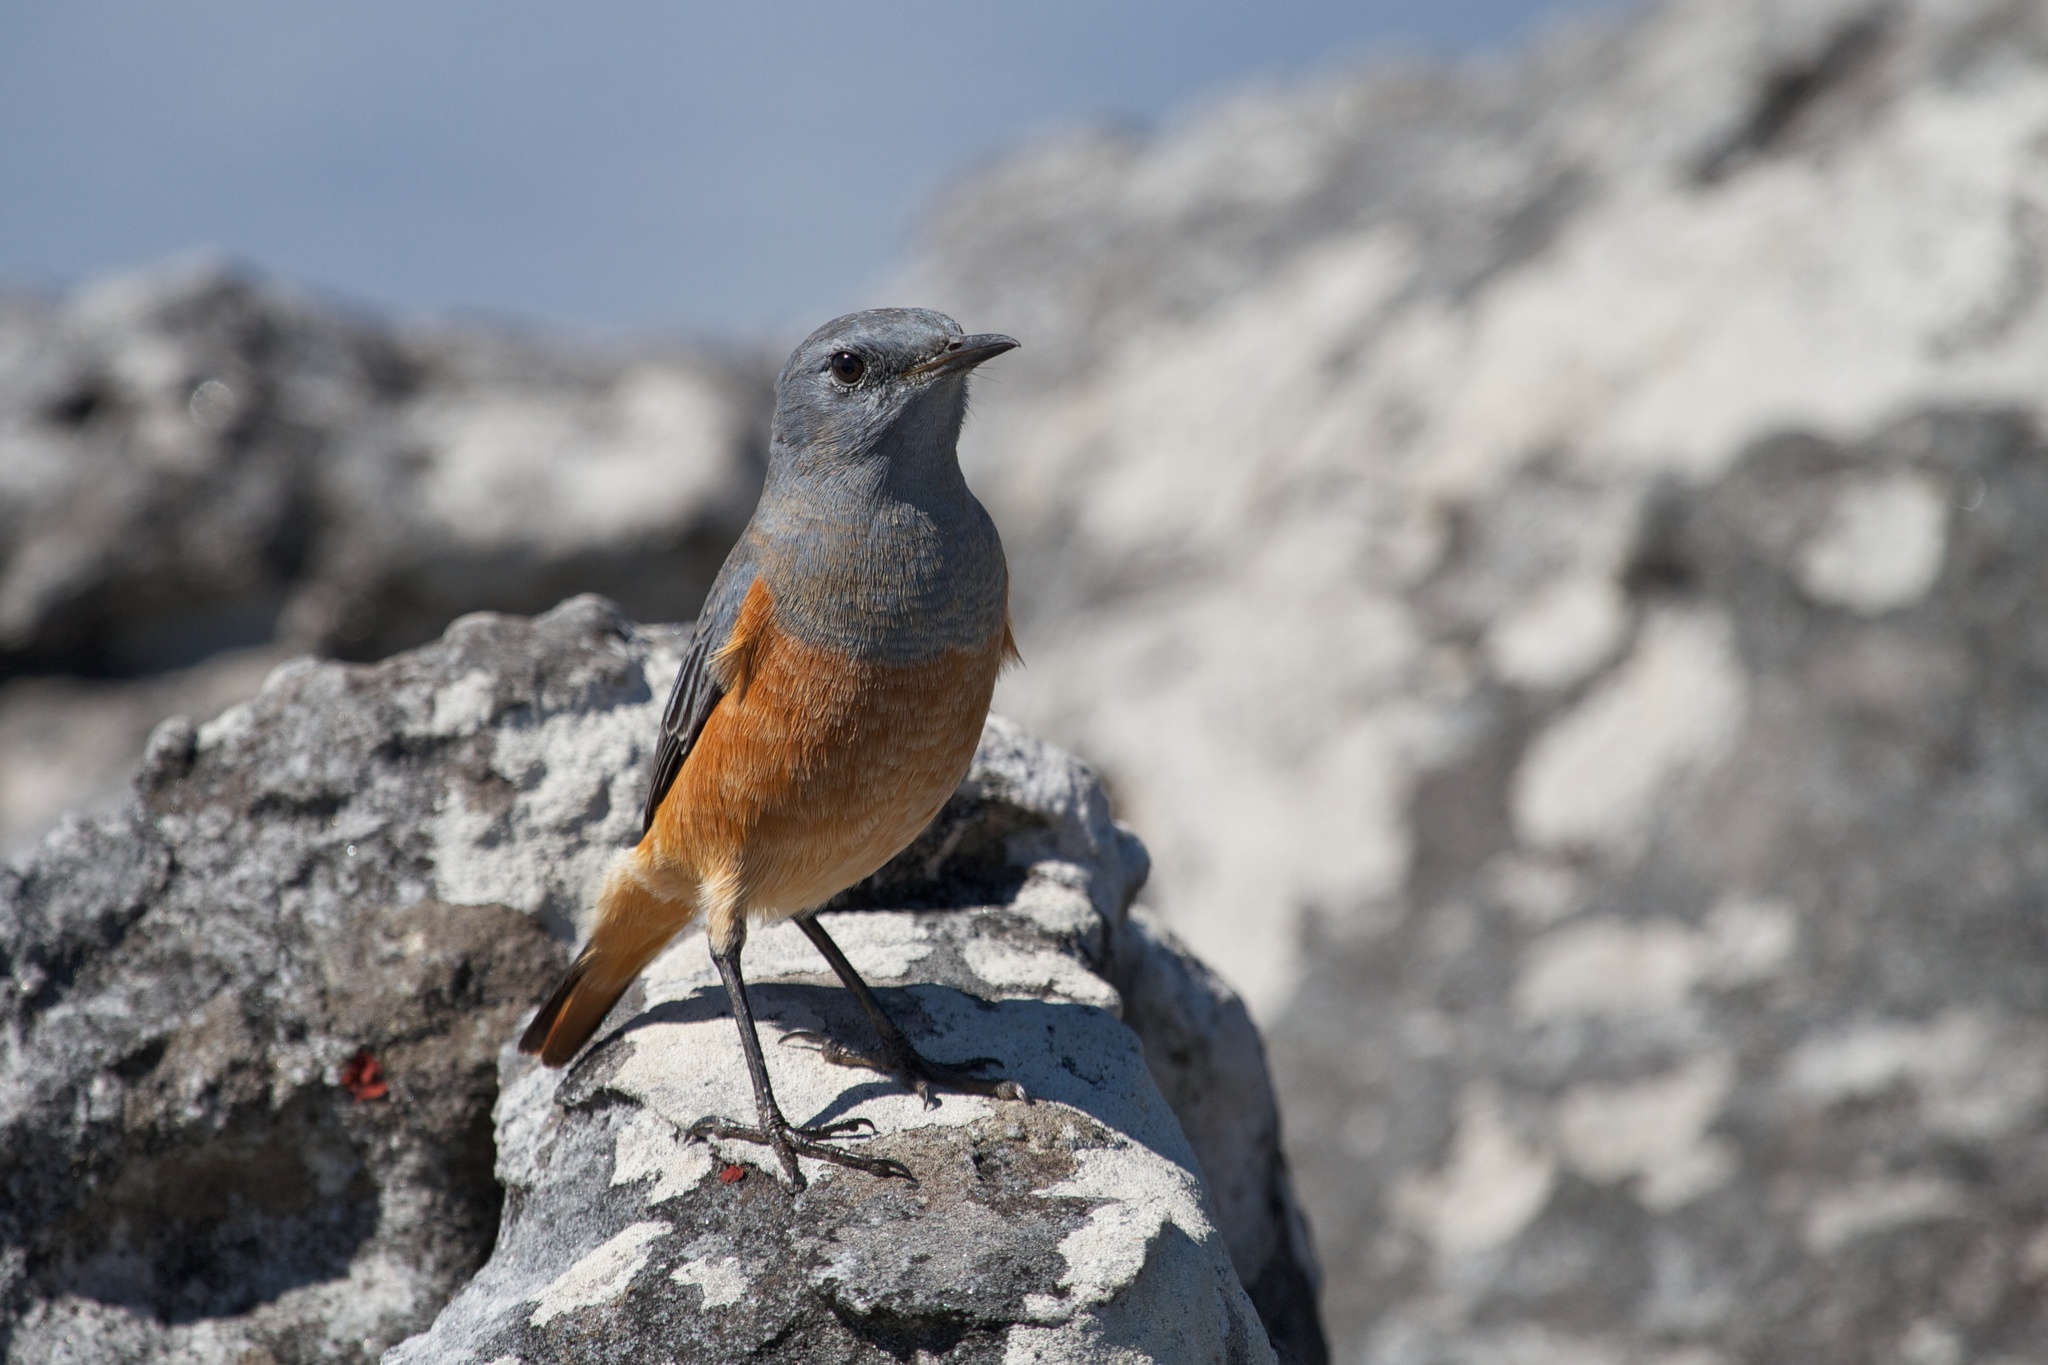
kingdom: Animalia
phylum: Chordata
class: Aves
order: Passeriformes
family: Muscicapidae
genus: Monticola
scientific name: Monticola explorator
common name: Sentinel rock thrush
